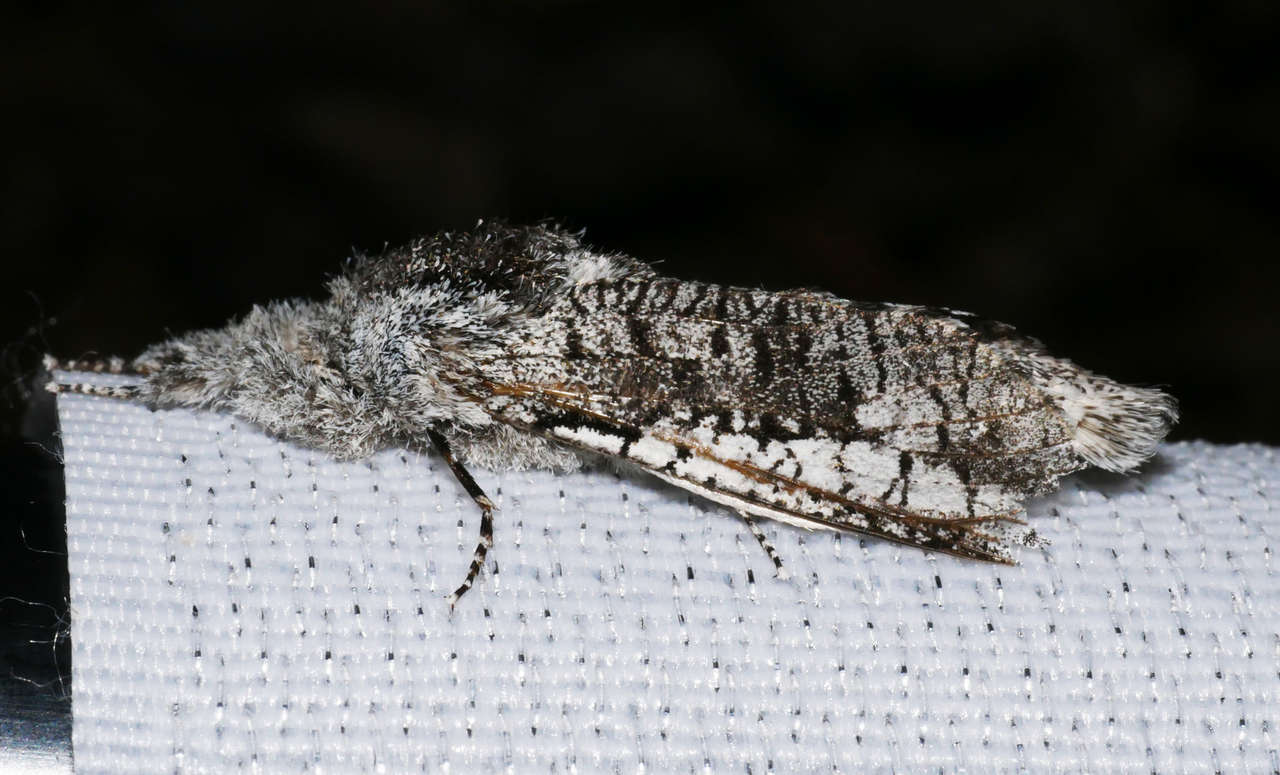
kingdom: Animalia
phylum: Arthropoda
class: Insecta
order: Lepidoptera
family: Cossidae
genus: Endoxyla
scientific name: Endoxyla secta
